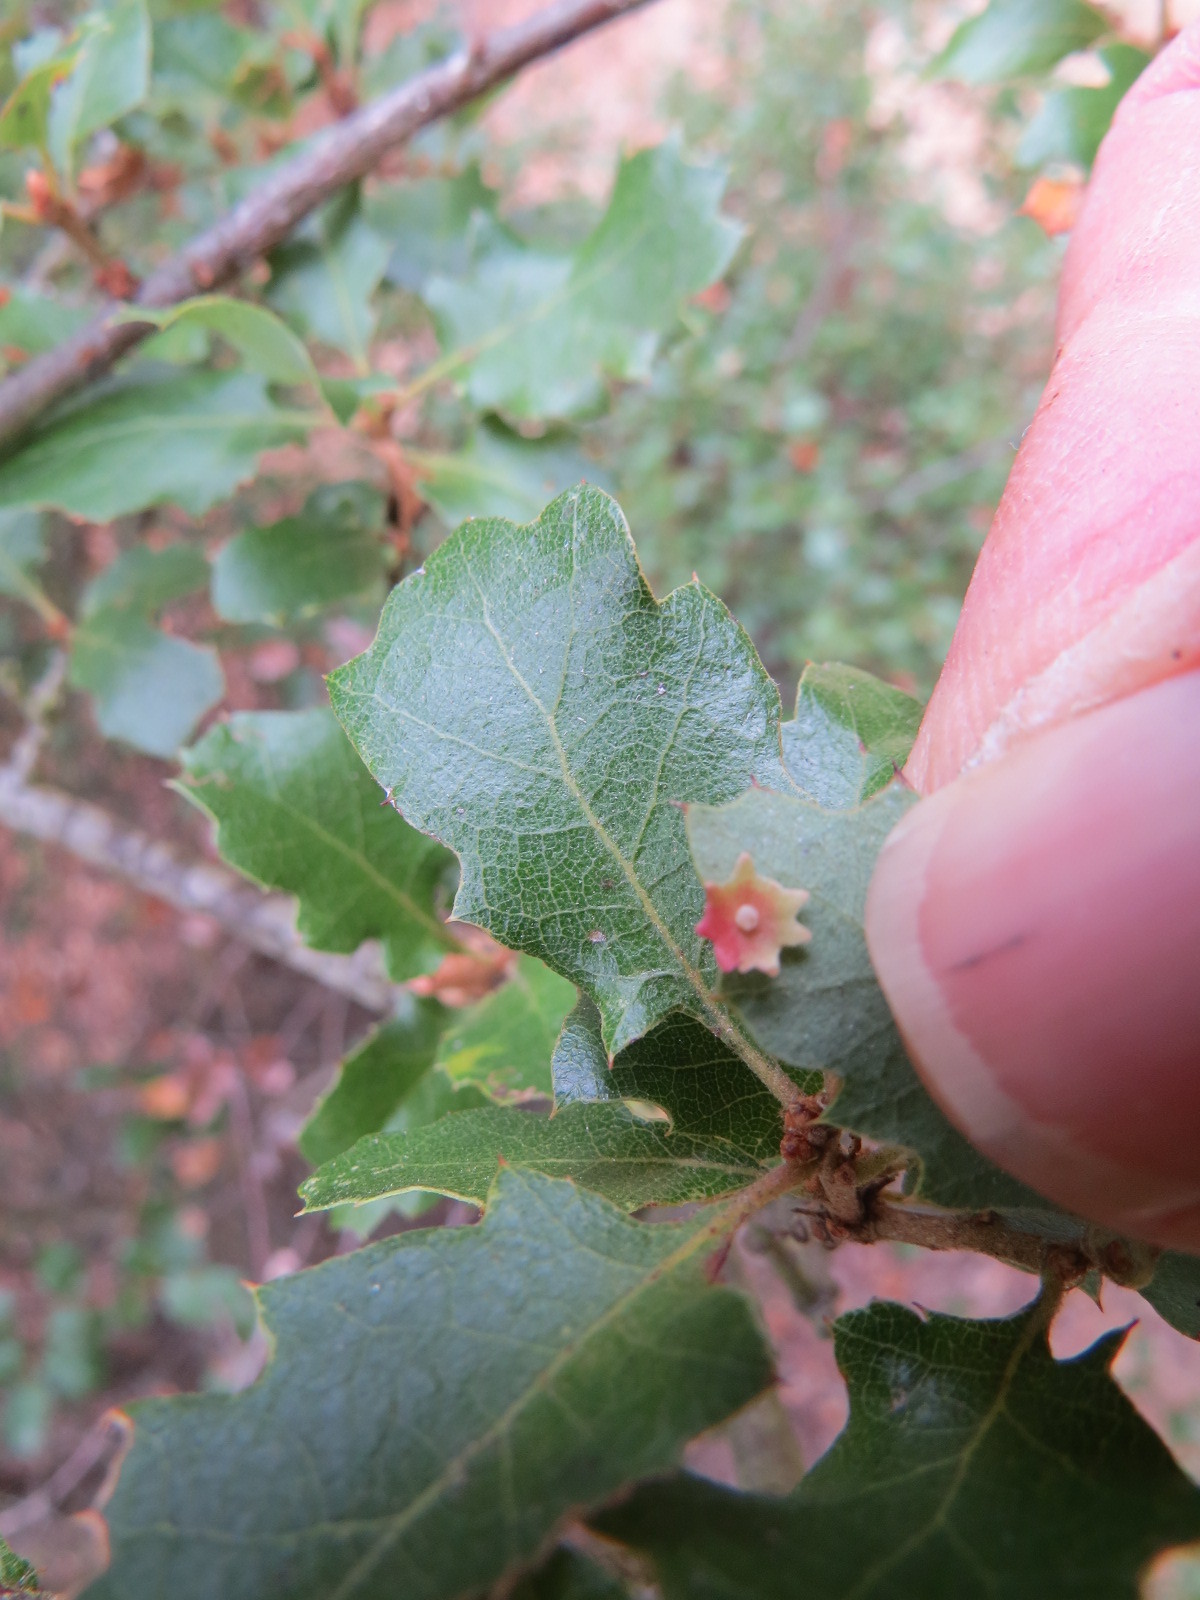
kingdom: Animalia
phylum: Arthropoda
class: Insecta
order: Hymenoptera
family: Cynipidae
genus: Andricus
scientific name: Andricus
